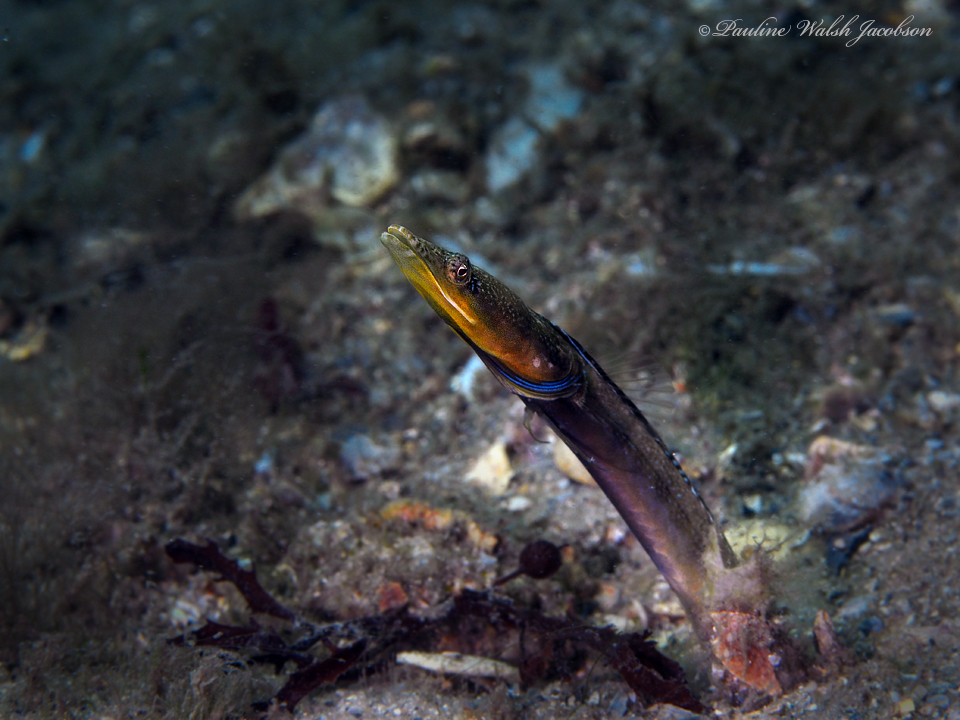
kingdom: Animalia
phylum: Chordata
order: Perciformes
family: Chaenopsidae
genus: Chaenopsis
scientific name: Chaenopsis ocellata
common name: Bluethroat pikeblenny
